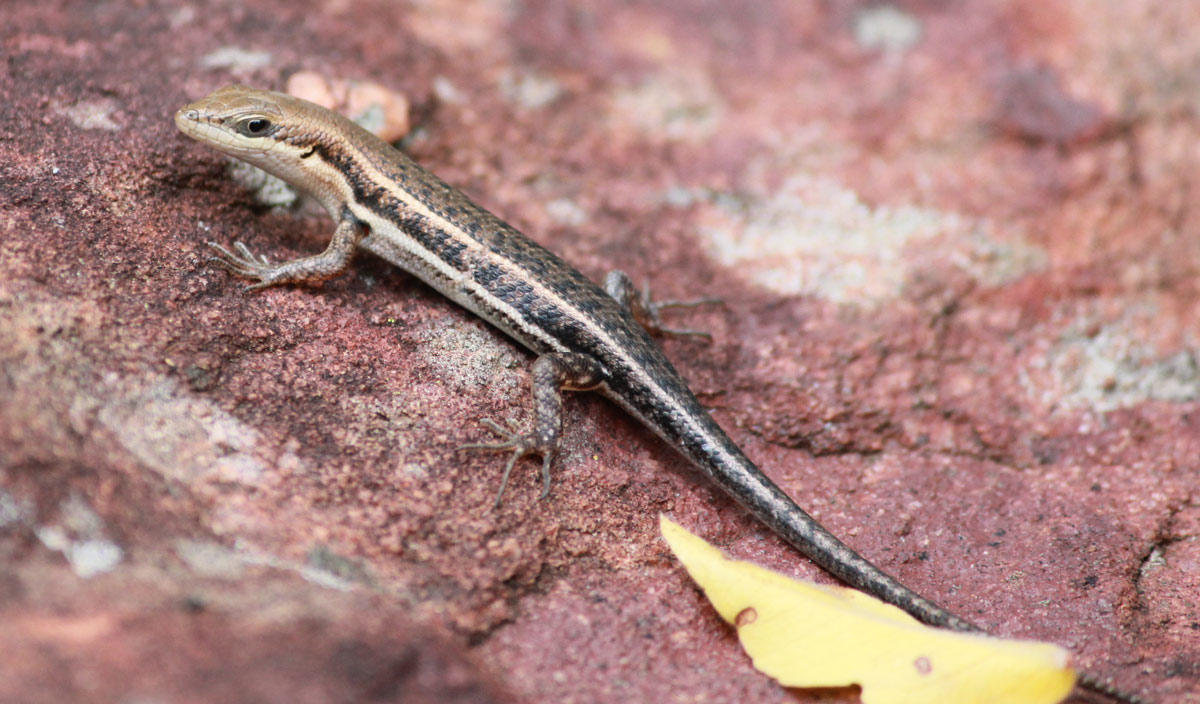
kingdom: Animalia
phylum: Chordata
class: Squamata
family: Scincidae
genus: Trachylepis
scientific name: Trachylepis varia
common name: Eastern variable skink
